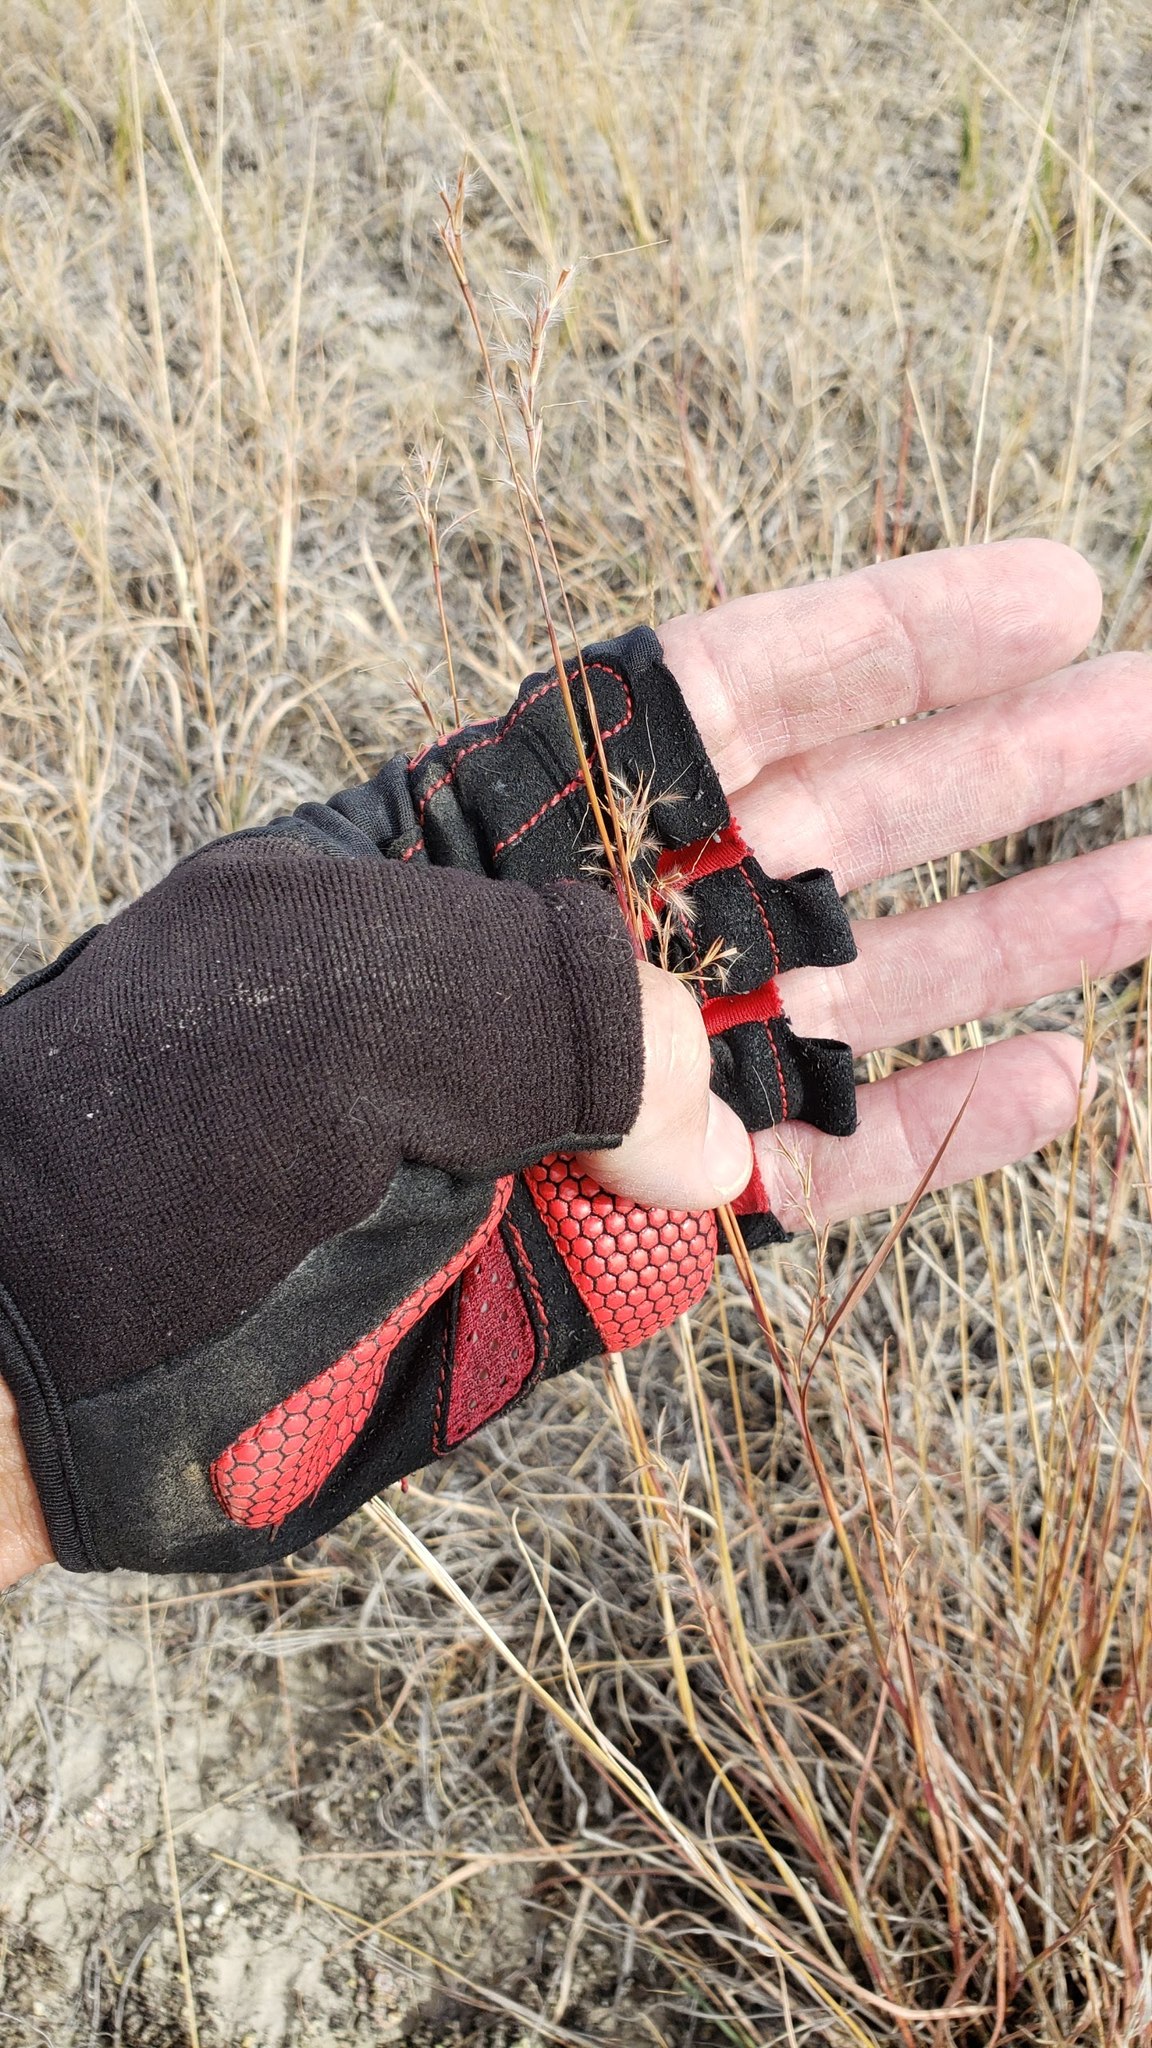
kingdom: Plantae
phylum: Tracheophyta
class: Liliopsida
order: Poales
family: Poaceae
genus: Schizachyrium
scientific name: Schizachyrium scoparium
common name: Little bluestem
